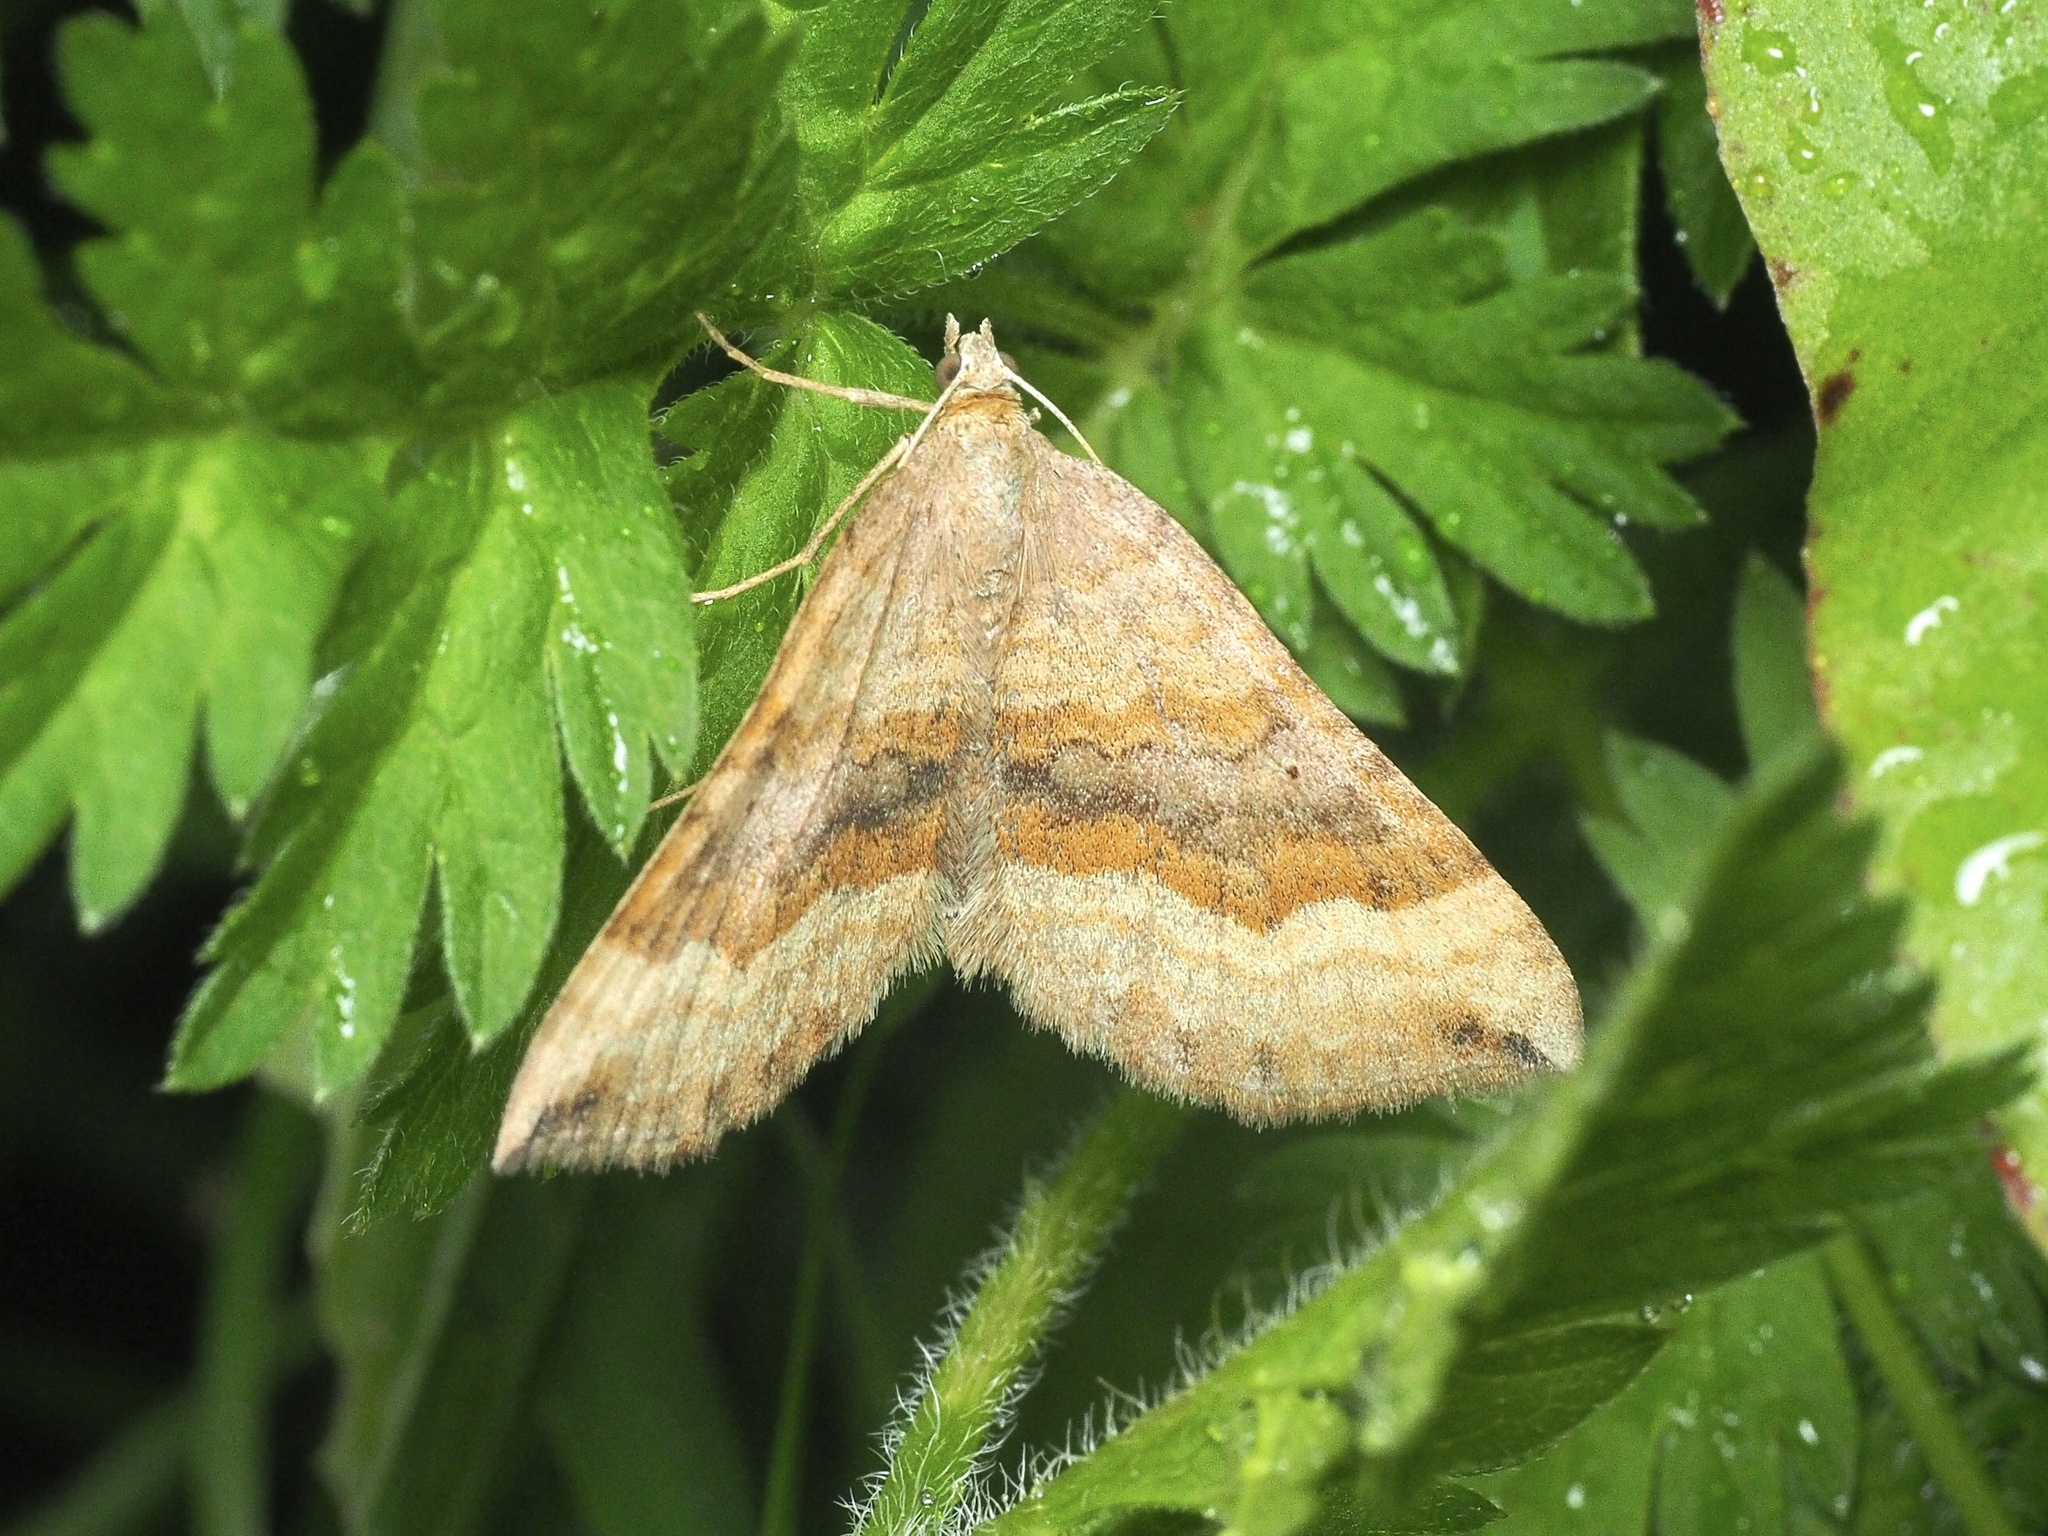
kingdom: Animalia
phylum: Arthropoda
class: Insecta
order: Lepidoptera
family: Geometridae
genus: Scotopteryx
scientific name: Scotopteryx chenopodiata
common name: Shaded broad-bar
